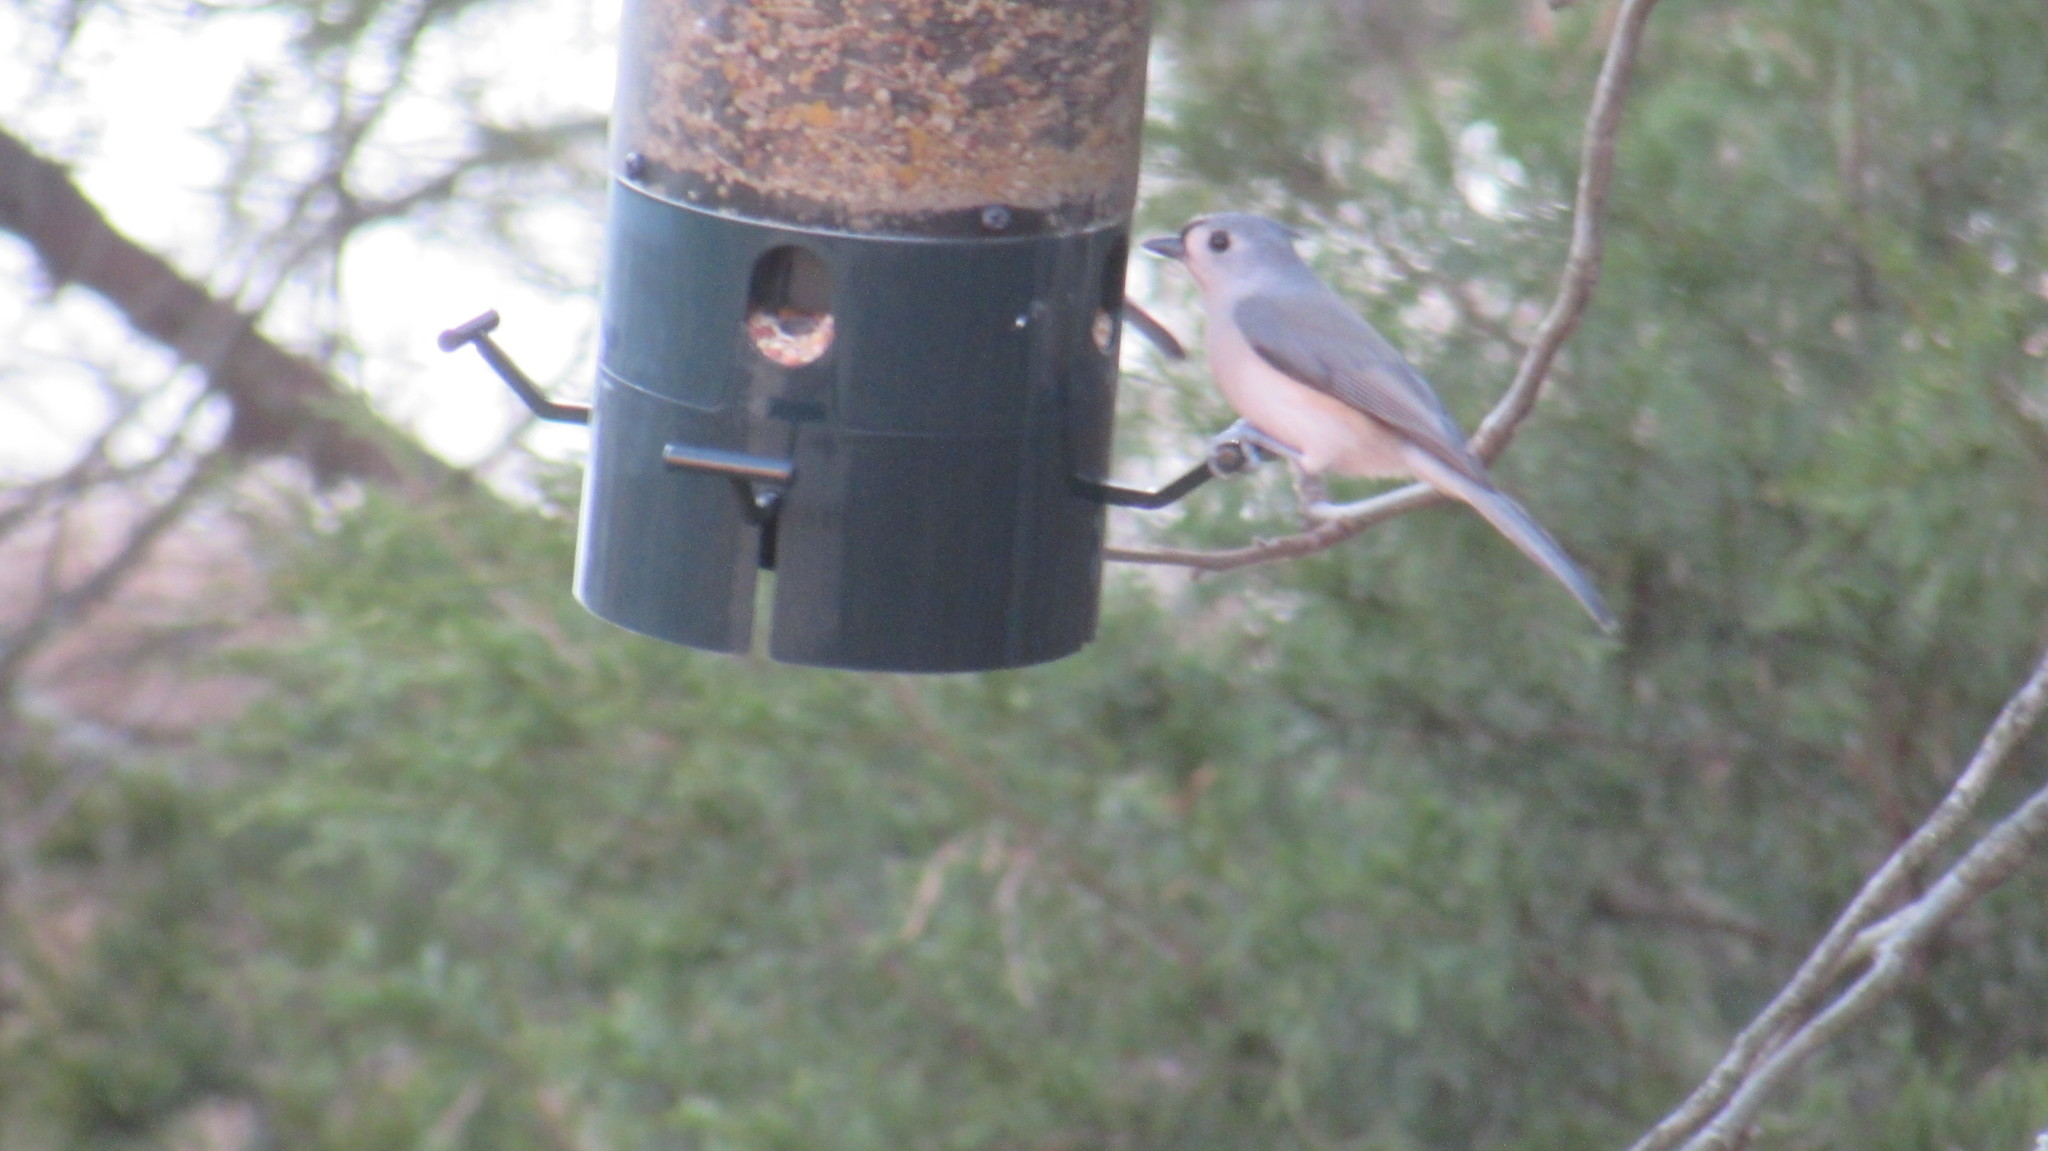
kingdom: Animalia
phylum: Chordata
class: Aves
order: Passeriformes
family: Paridae
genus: Baeolophus
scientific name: Baeolophus bicolor
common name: Tufted titmouse
